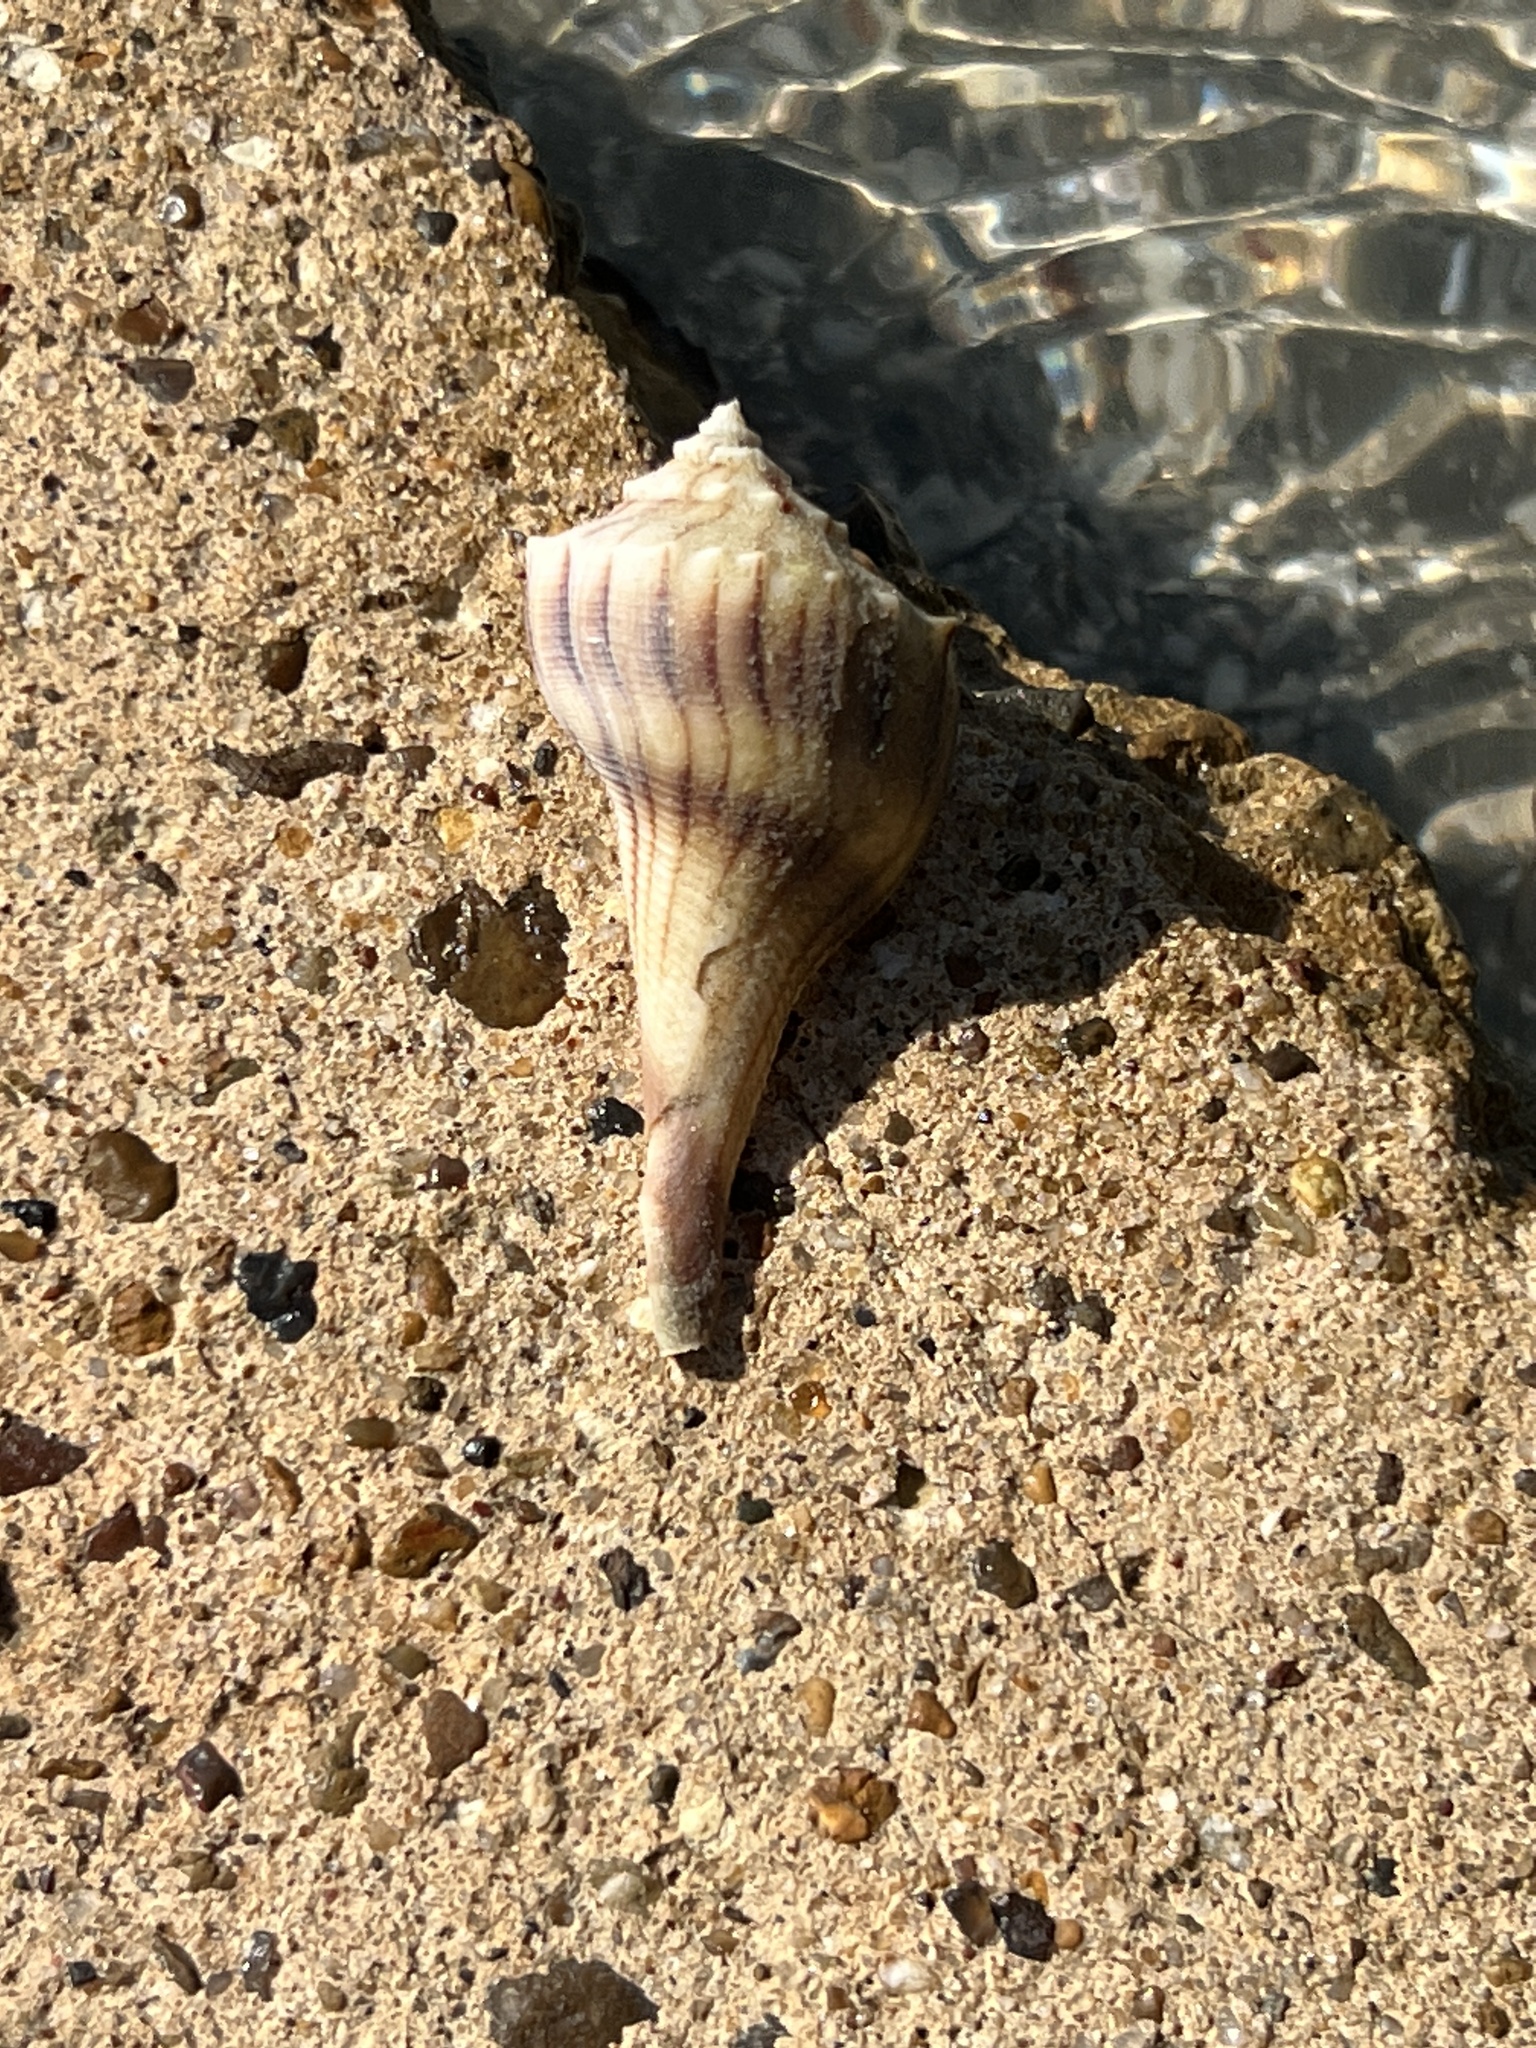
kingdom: Animalia
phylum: Mollusca
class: Gastropoda
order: Neogastropoda
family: Busyconidae
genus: Sinistrofulgur
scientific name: Sinistrofulgur pulleyi
